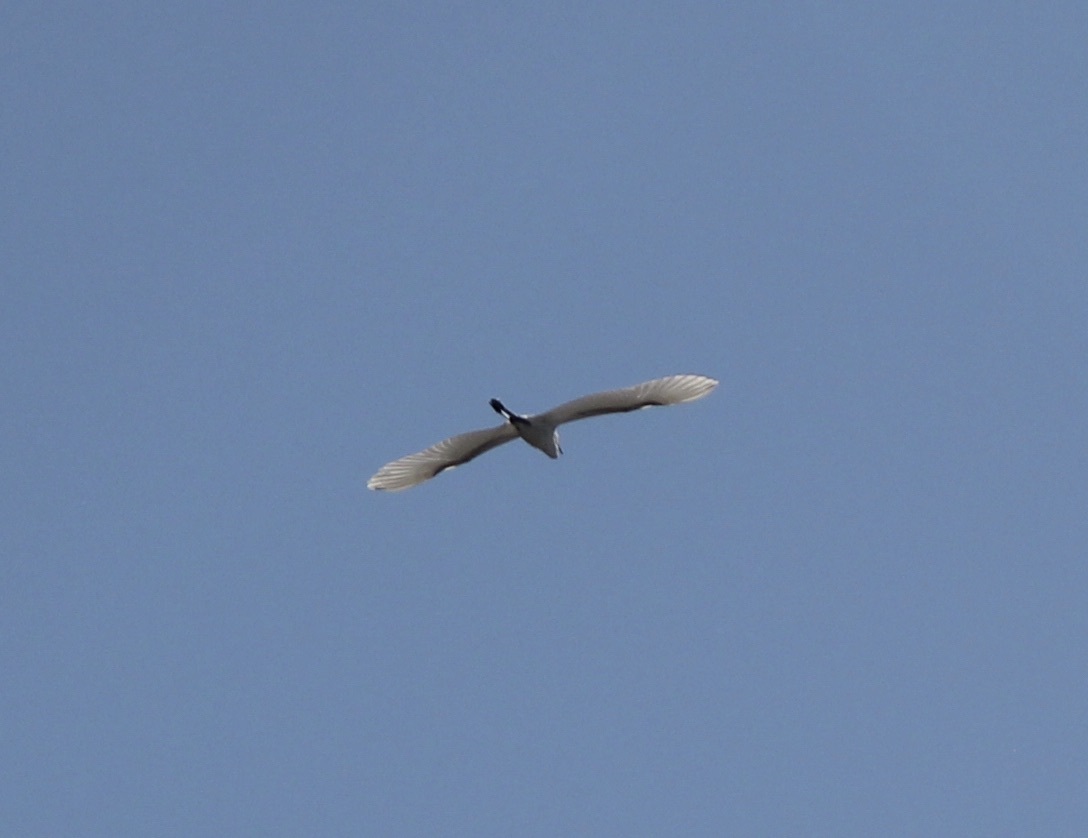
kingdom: Animalia
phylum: Chordata
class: Aves
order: Pelecaniformes
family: Ardeidae
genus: Ardea
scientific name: Ardea alba
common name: Great egret
